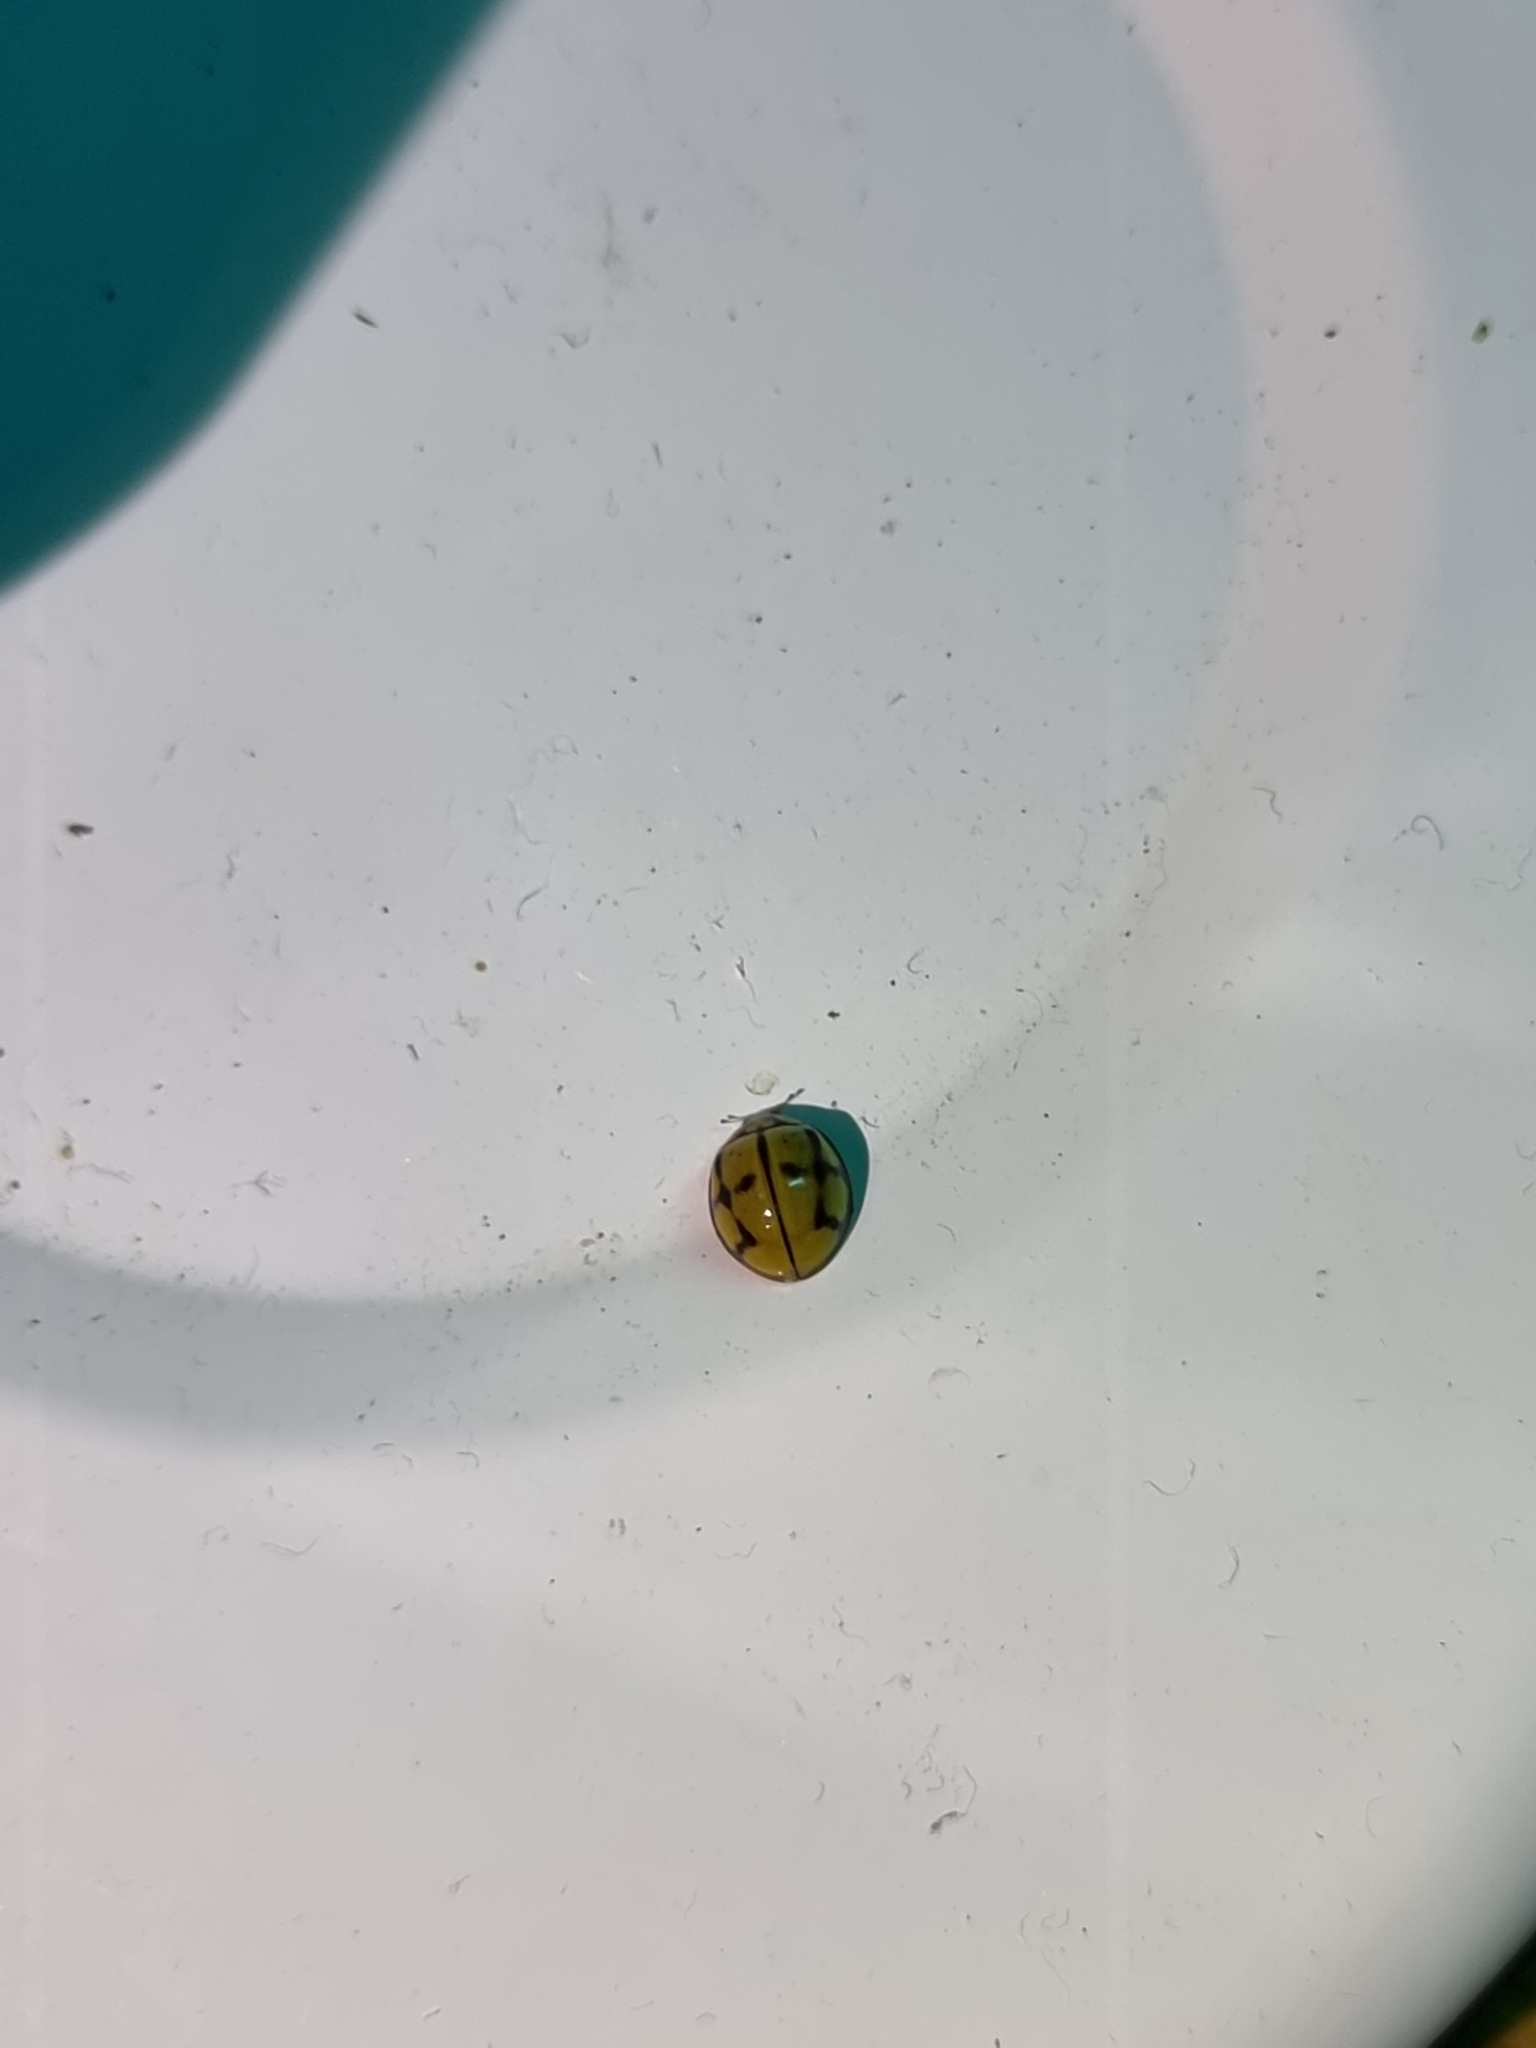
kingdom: Animalia
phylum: Arthropoda
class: Insecta
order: Coleoptera
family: Coccinellidae
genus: Harmonia
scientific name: Harmonia
